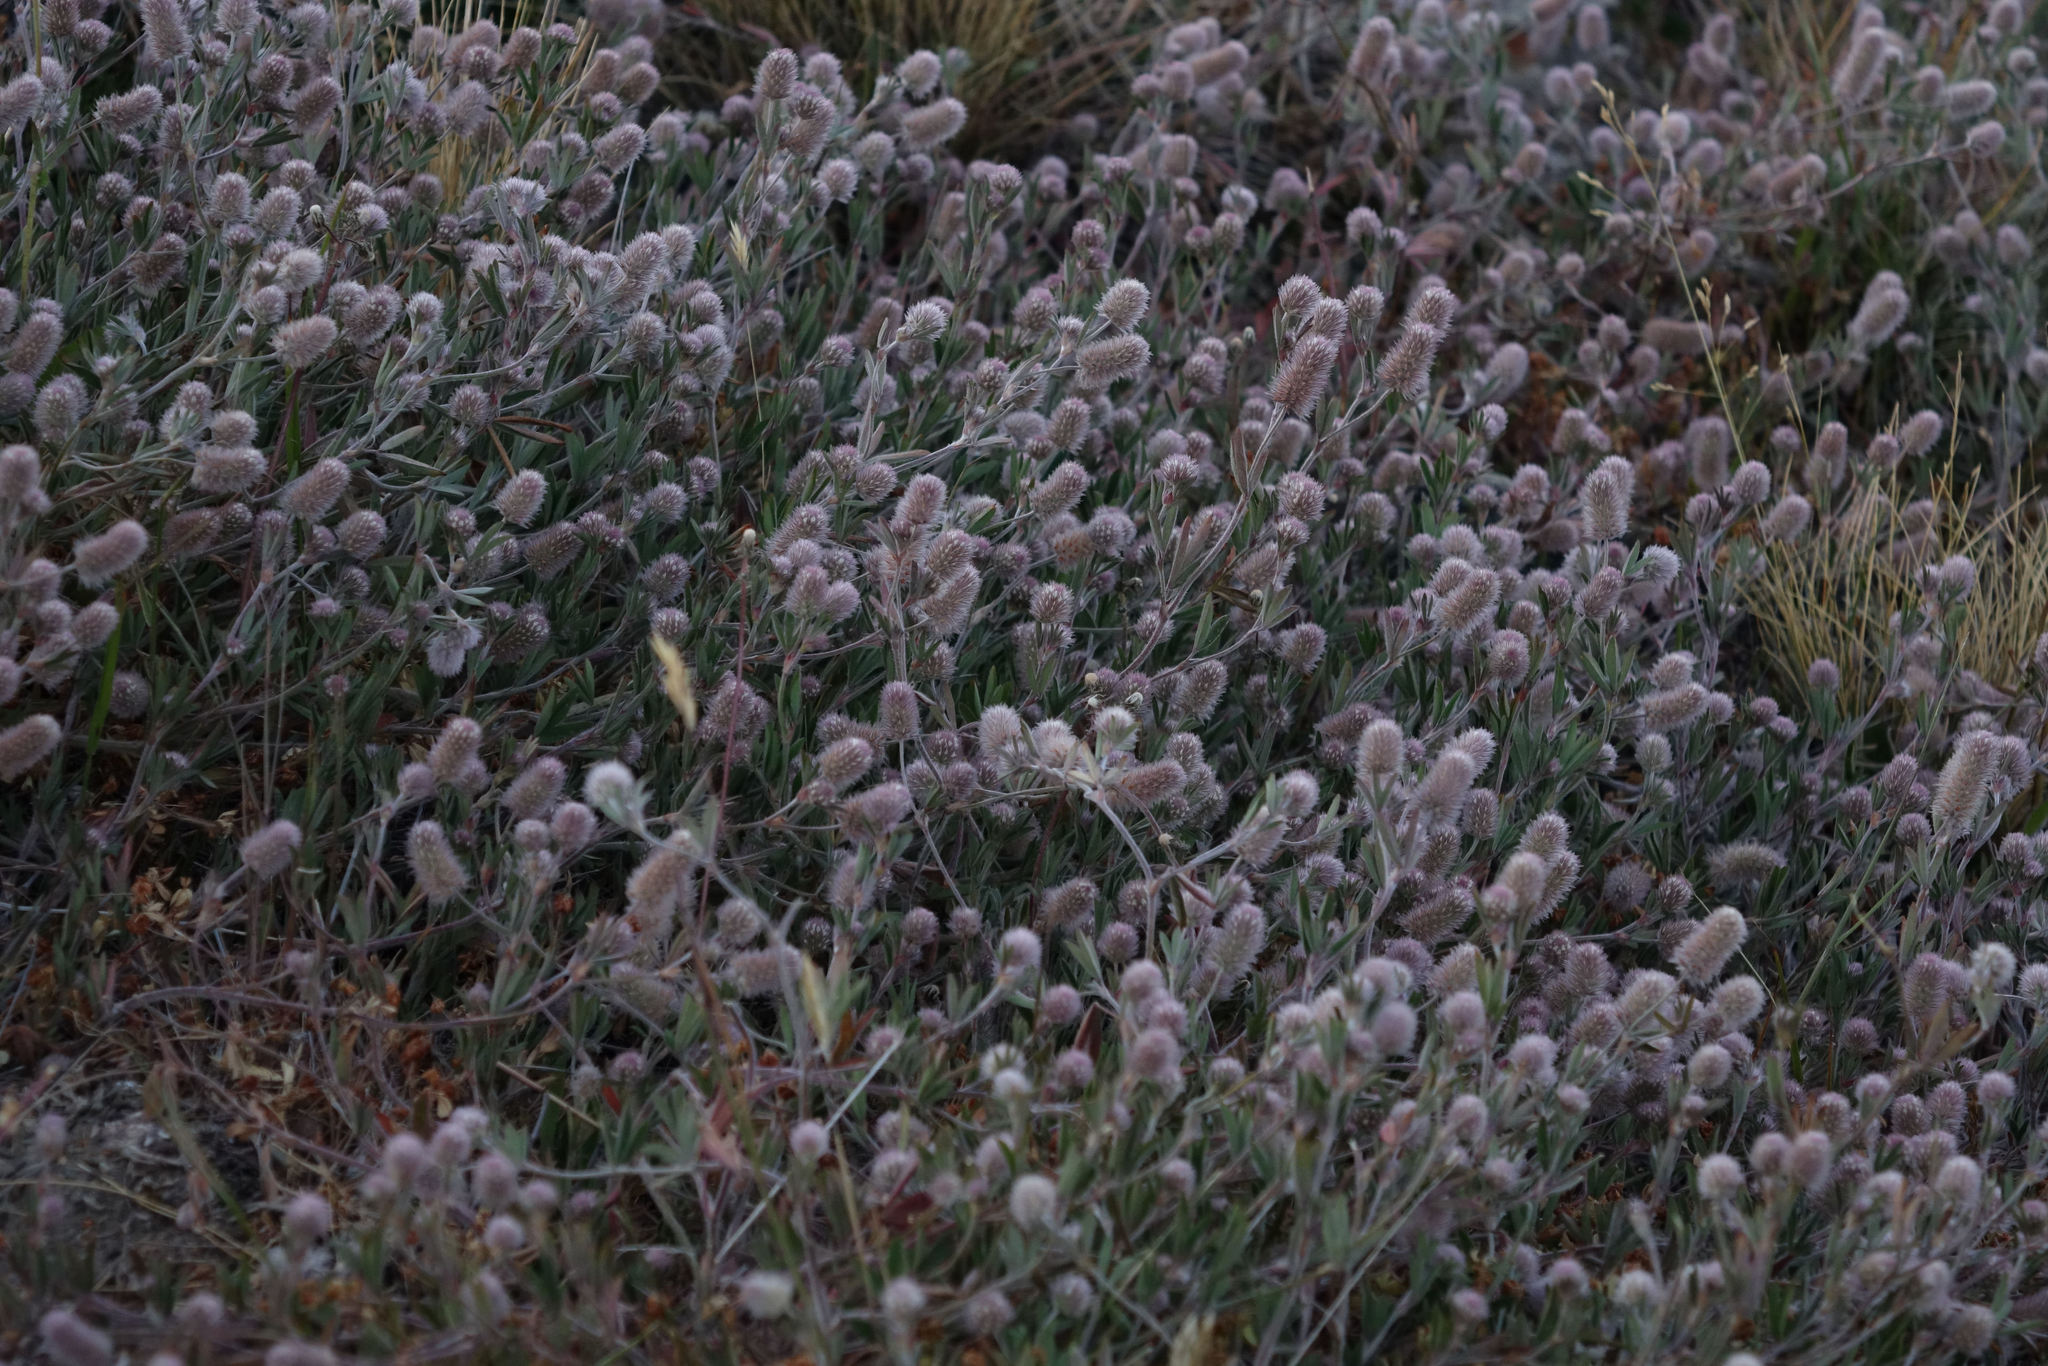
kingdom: Plantae
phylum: Tracheophyta
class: Magnoliopsida
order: Fabales
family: Fabaceae
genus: Trifolium
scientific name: Trifolium arvense
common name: Hare's-foot clover
